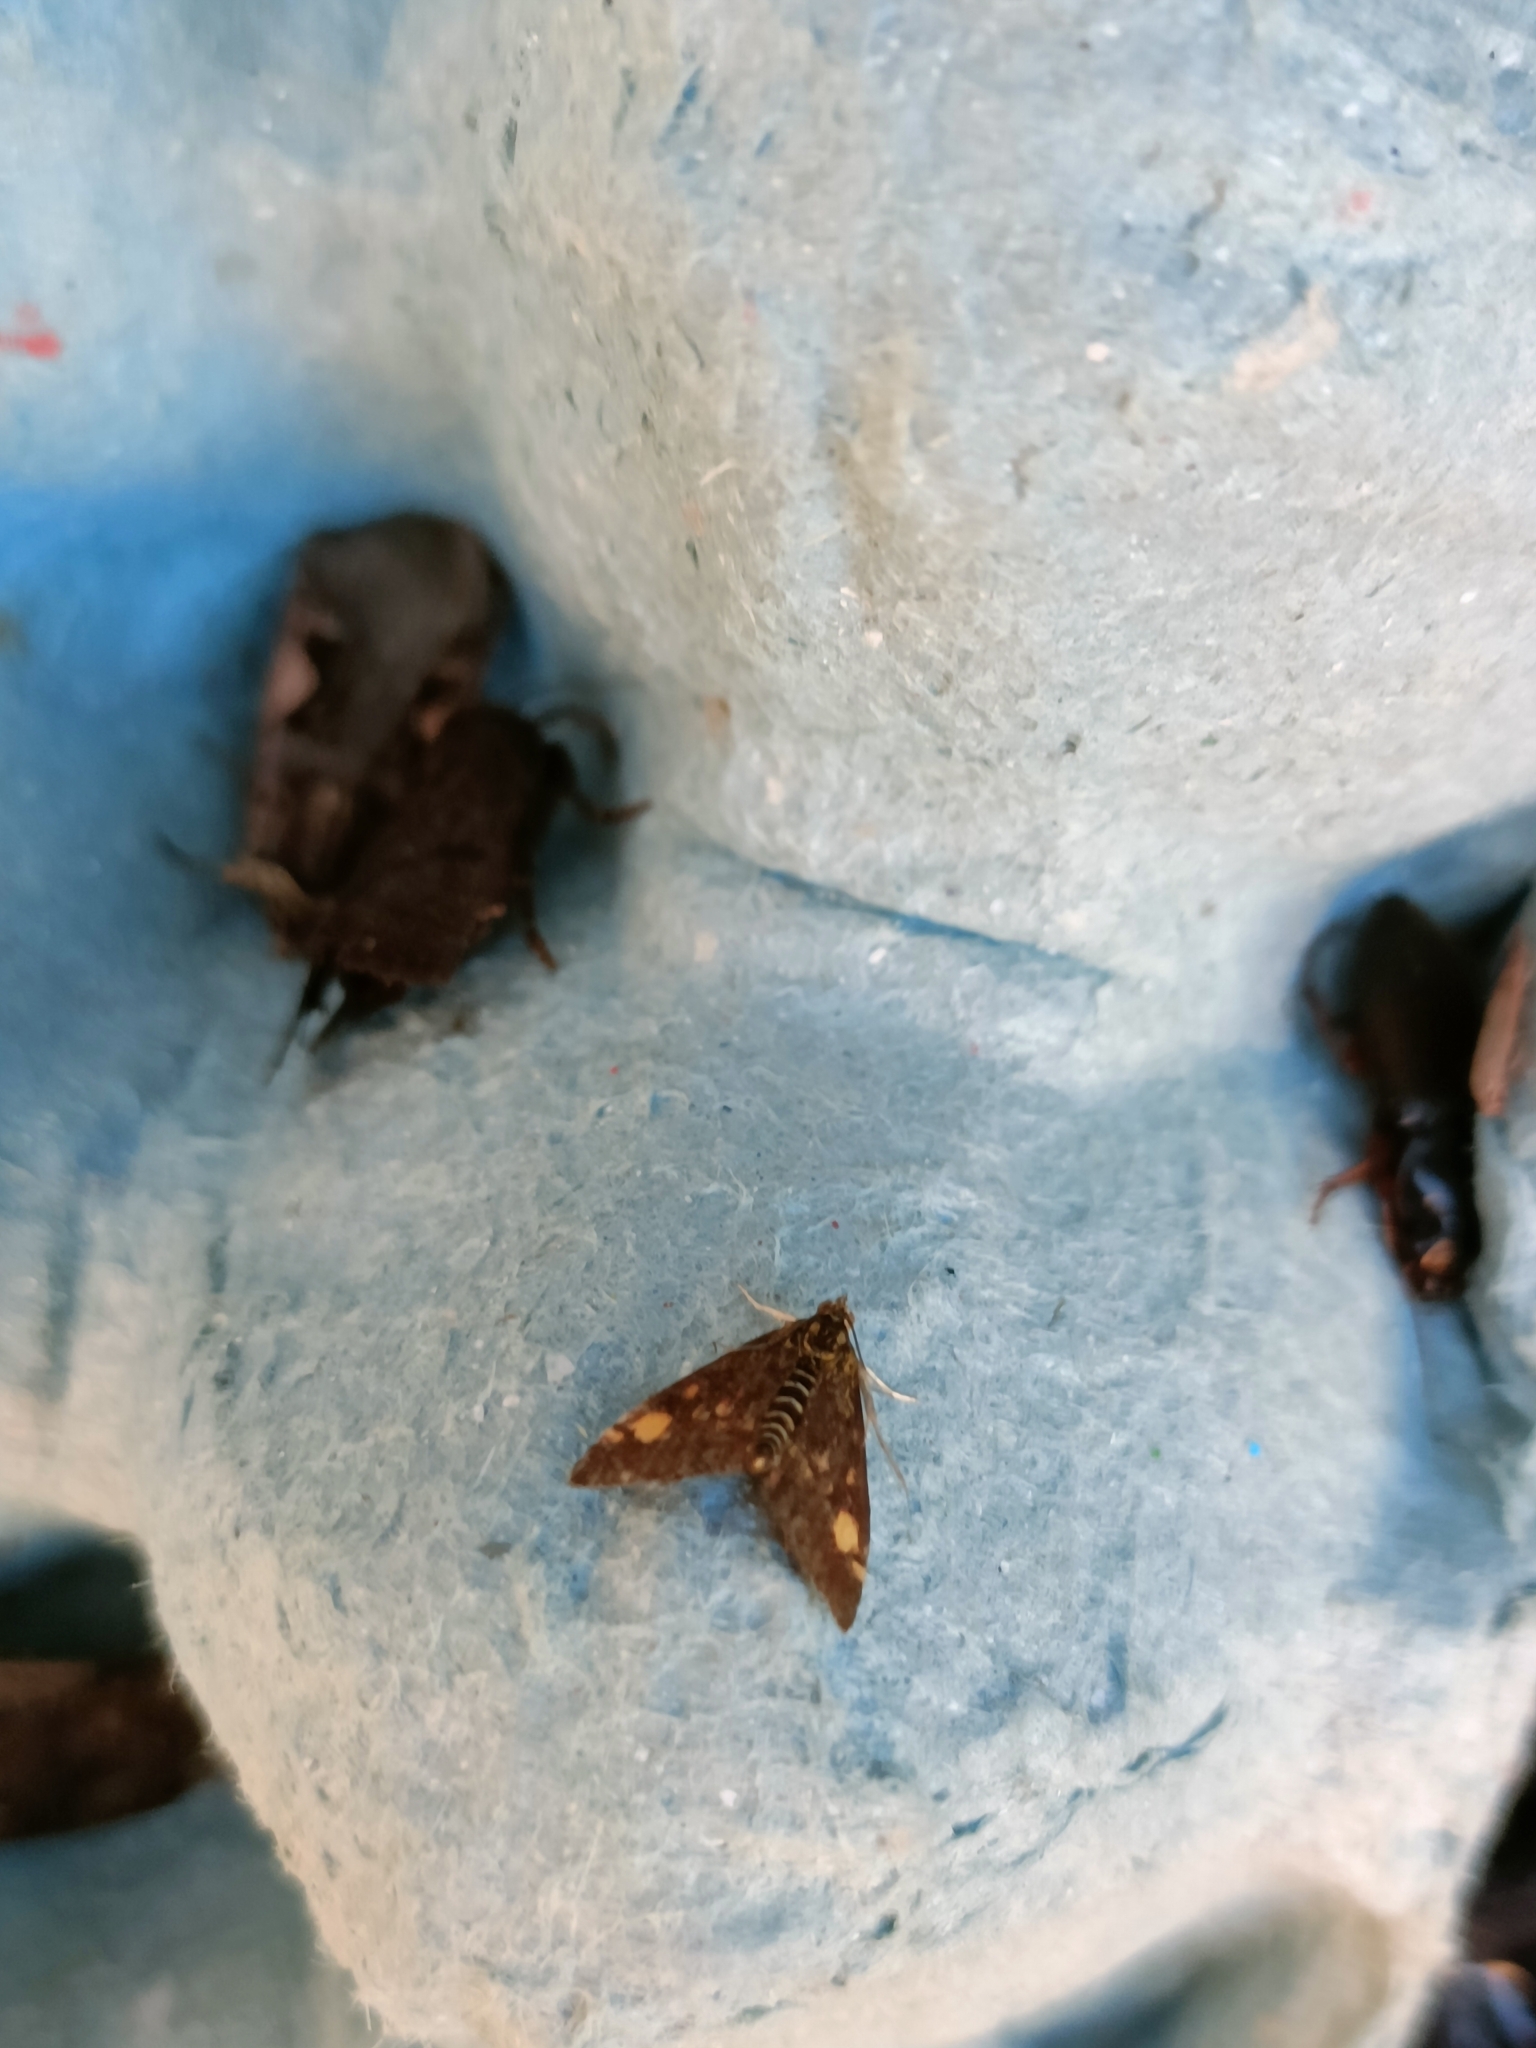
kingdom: Animalia
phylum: Arthropoda
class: Insecta
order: Lepidoptera
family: Crambidae
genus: Pyrausta
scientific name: Pyrausta aurata
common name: Small purple & gold
